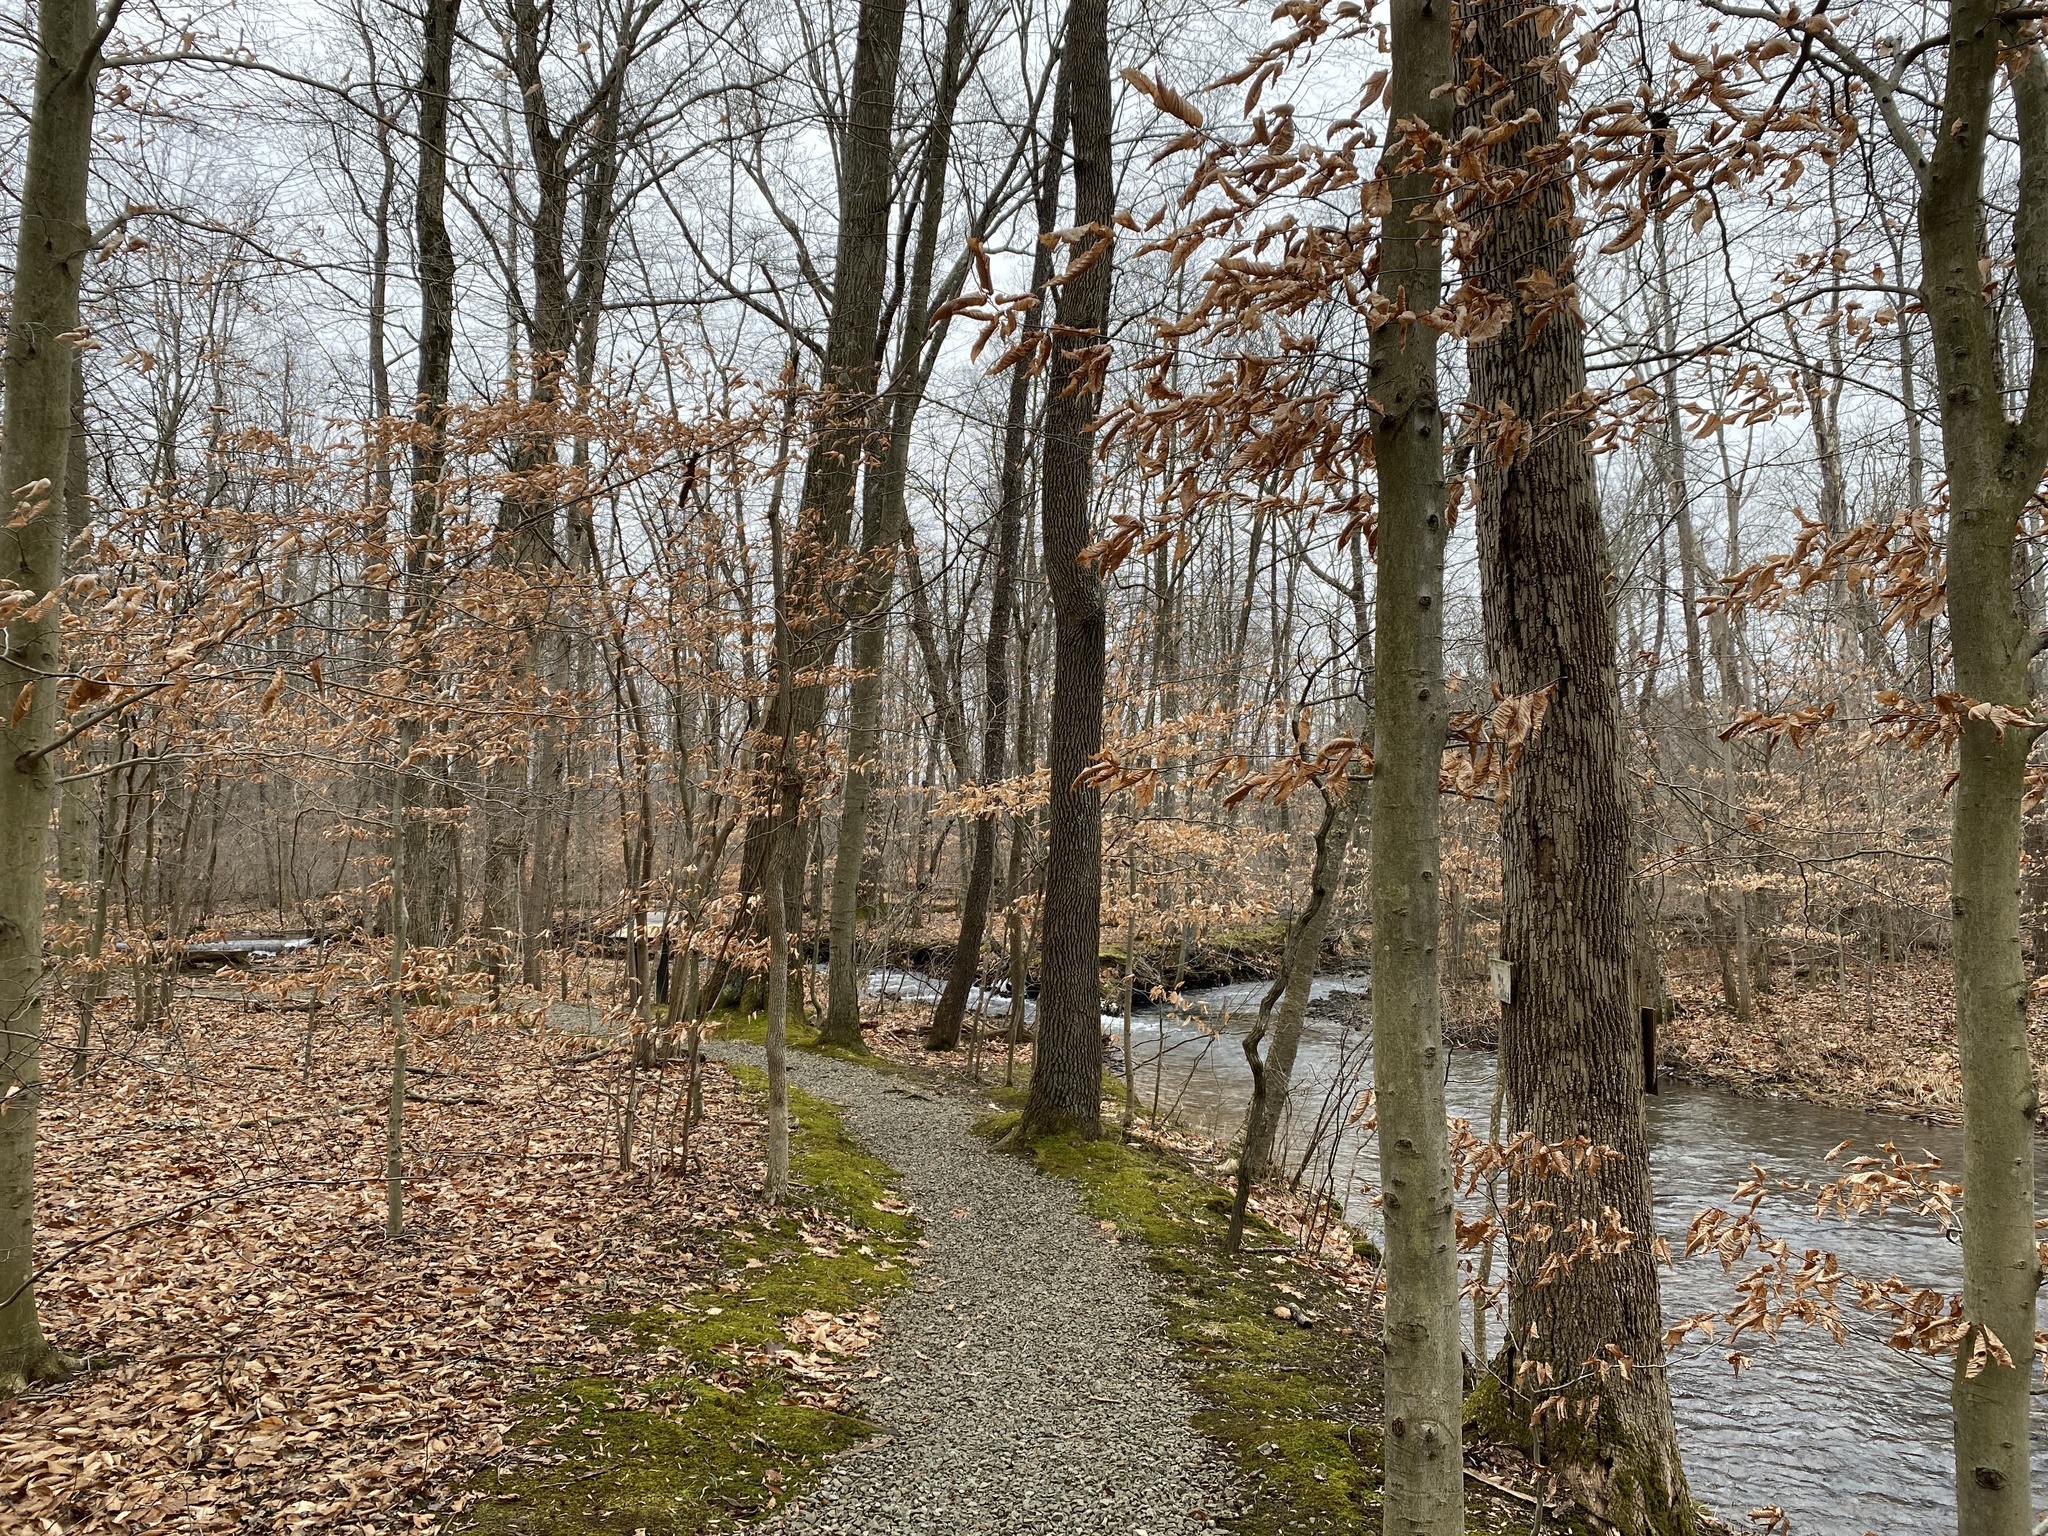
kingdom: Plantae
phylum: Tracheophyta
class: Magnoliopsida
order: Fagales
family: Fagaceae
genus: Fagus
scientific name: Fagus grandifolia
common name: American beech
